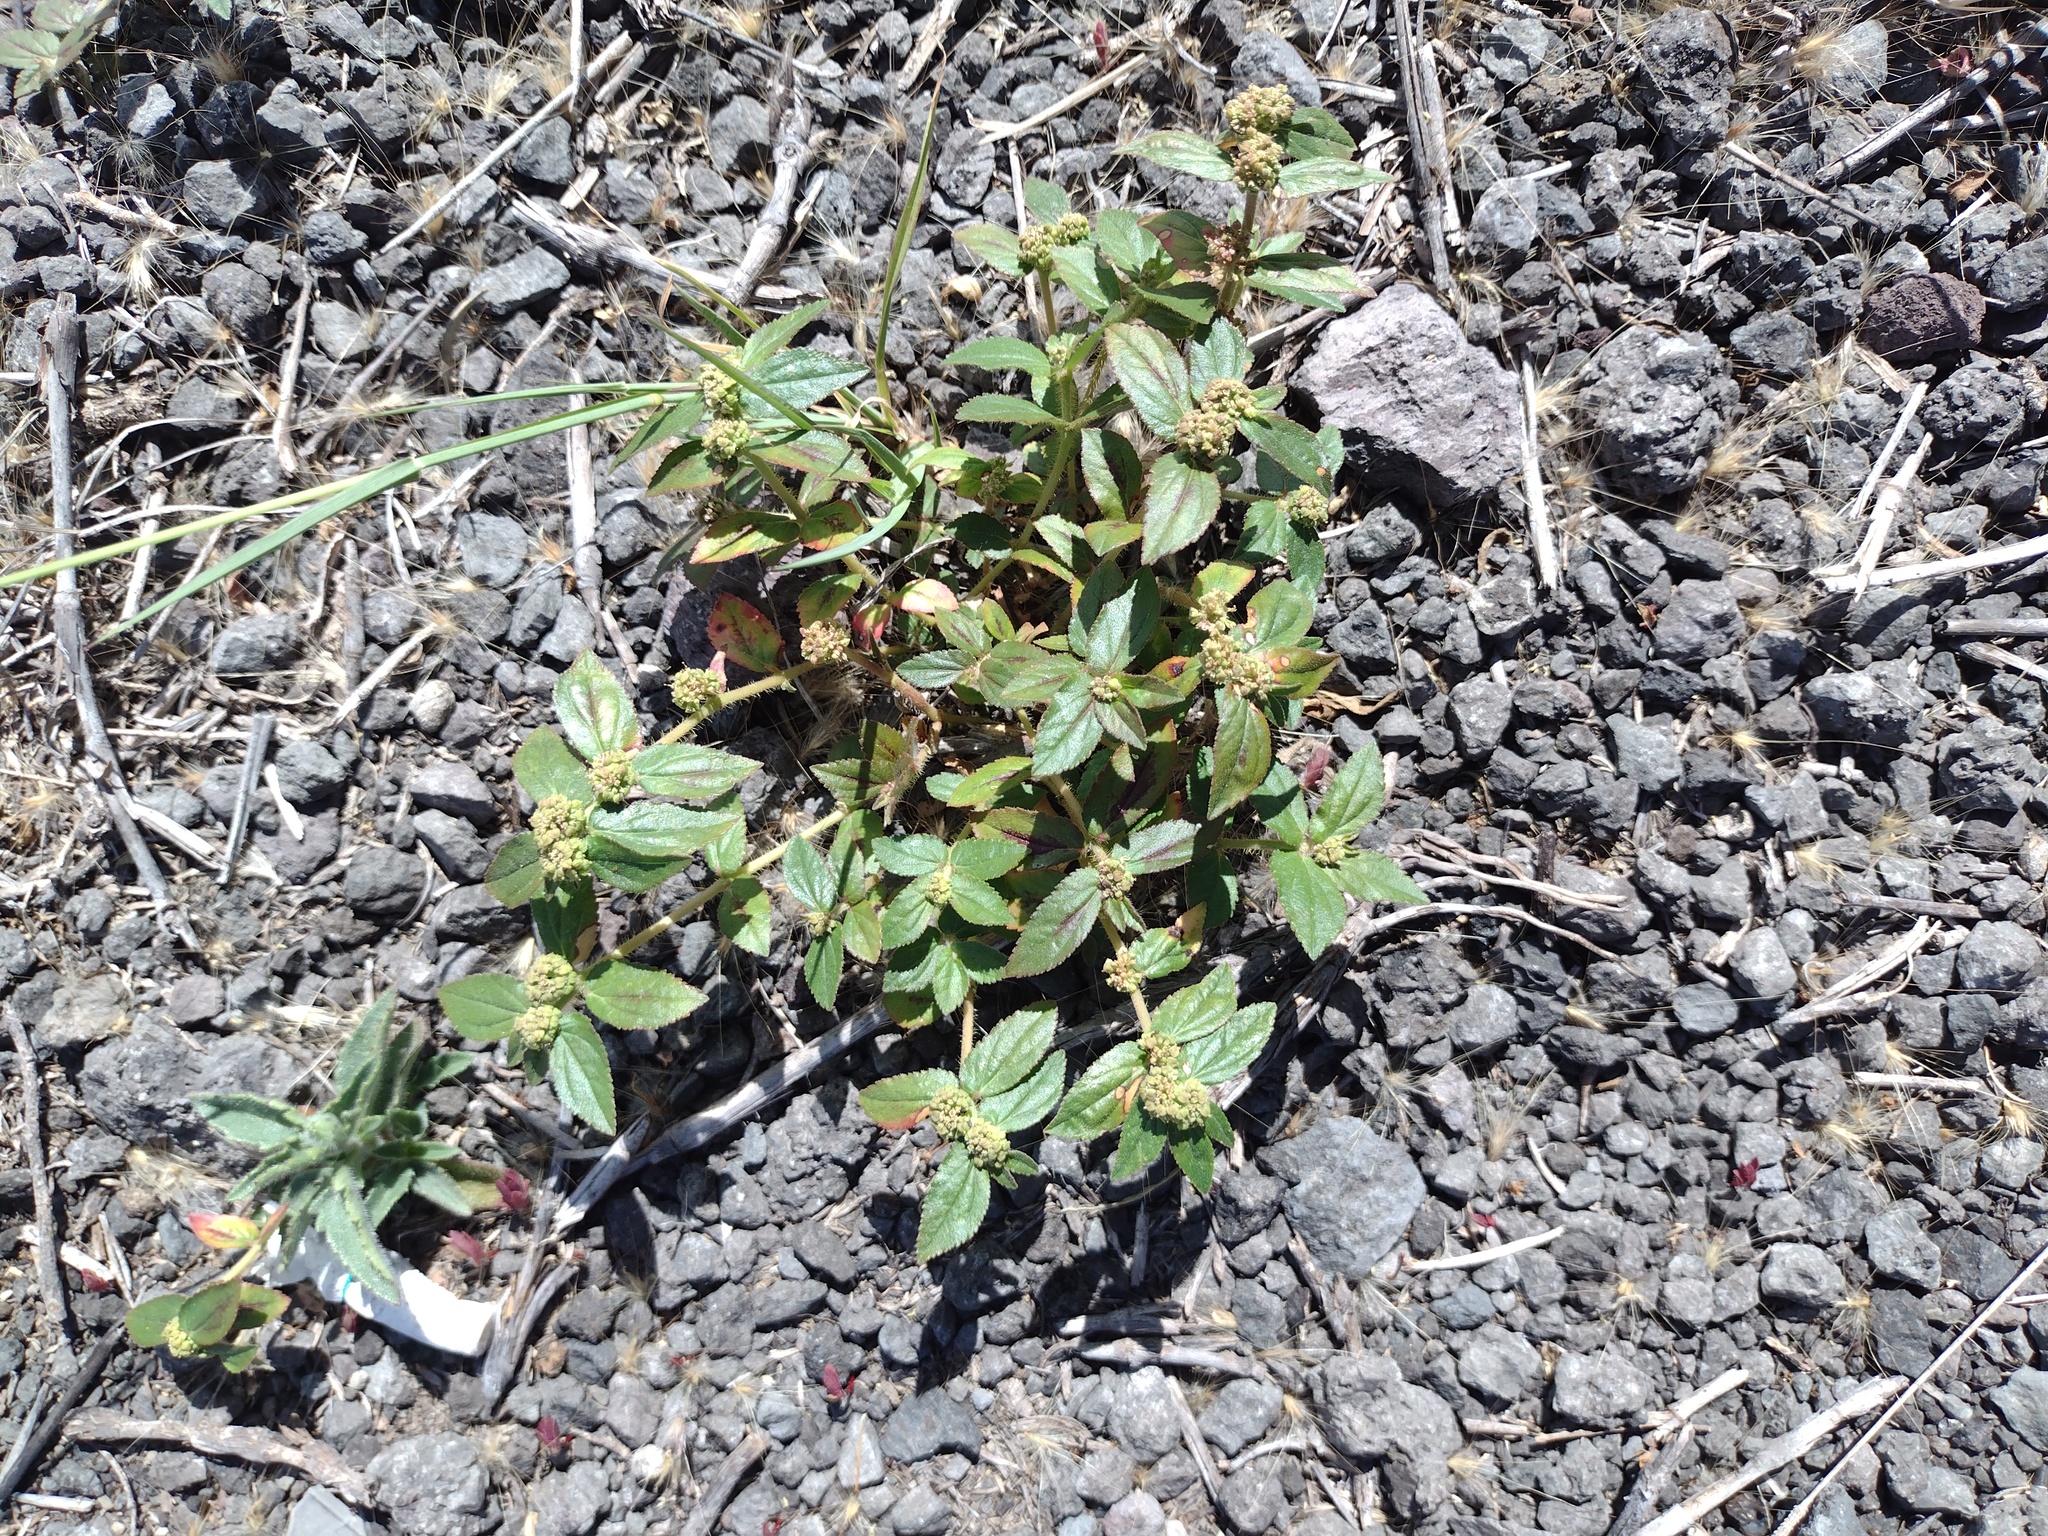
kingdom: Plantae
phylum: Tracheophyta
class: Magnoliopsida
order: Malpighiales
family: Euphorbiaceae
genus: Euphorbia
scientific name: Euphorbia hirta
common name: Pillpod sandmat
